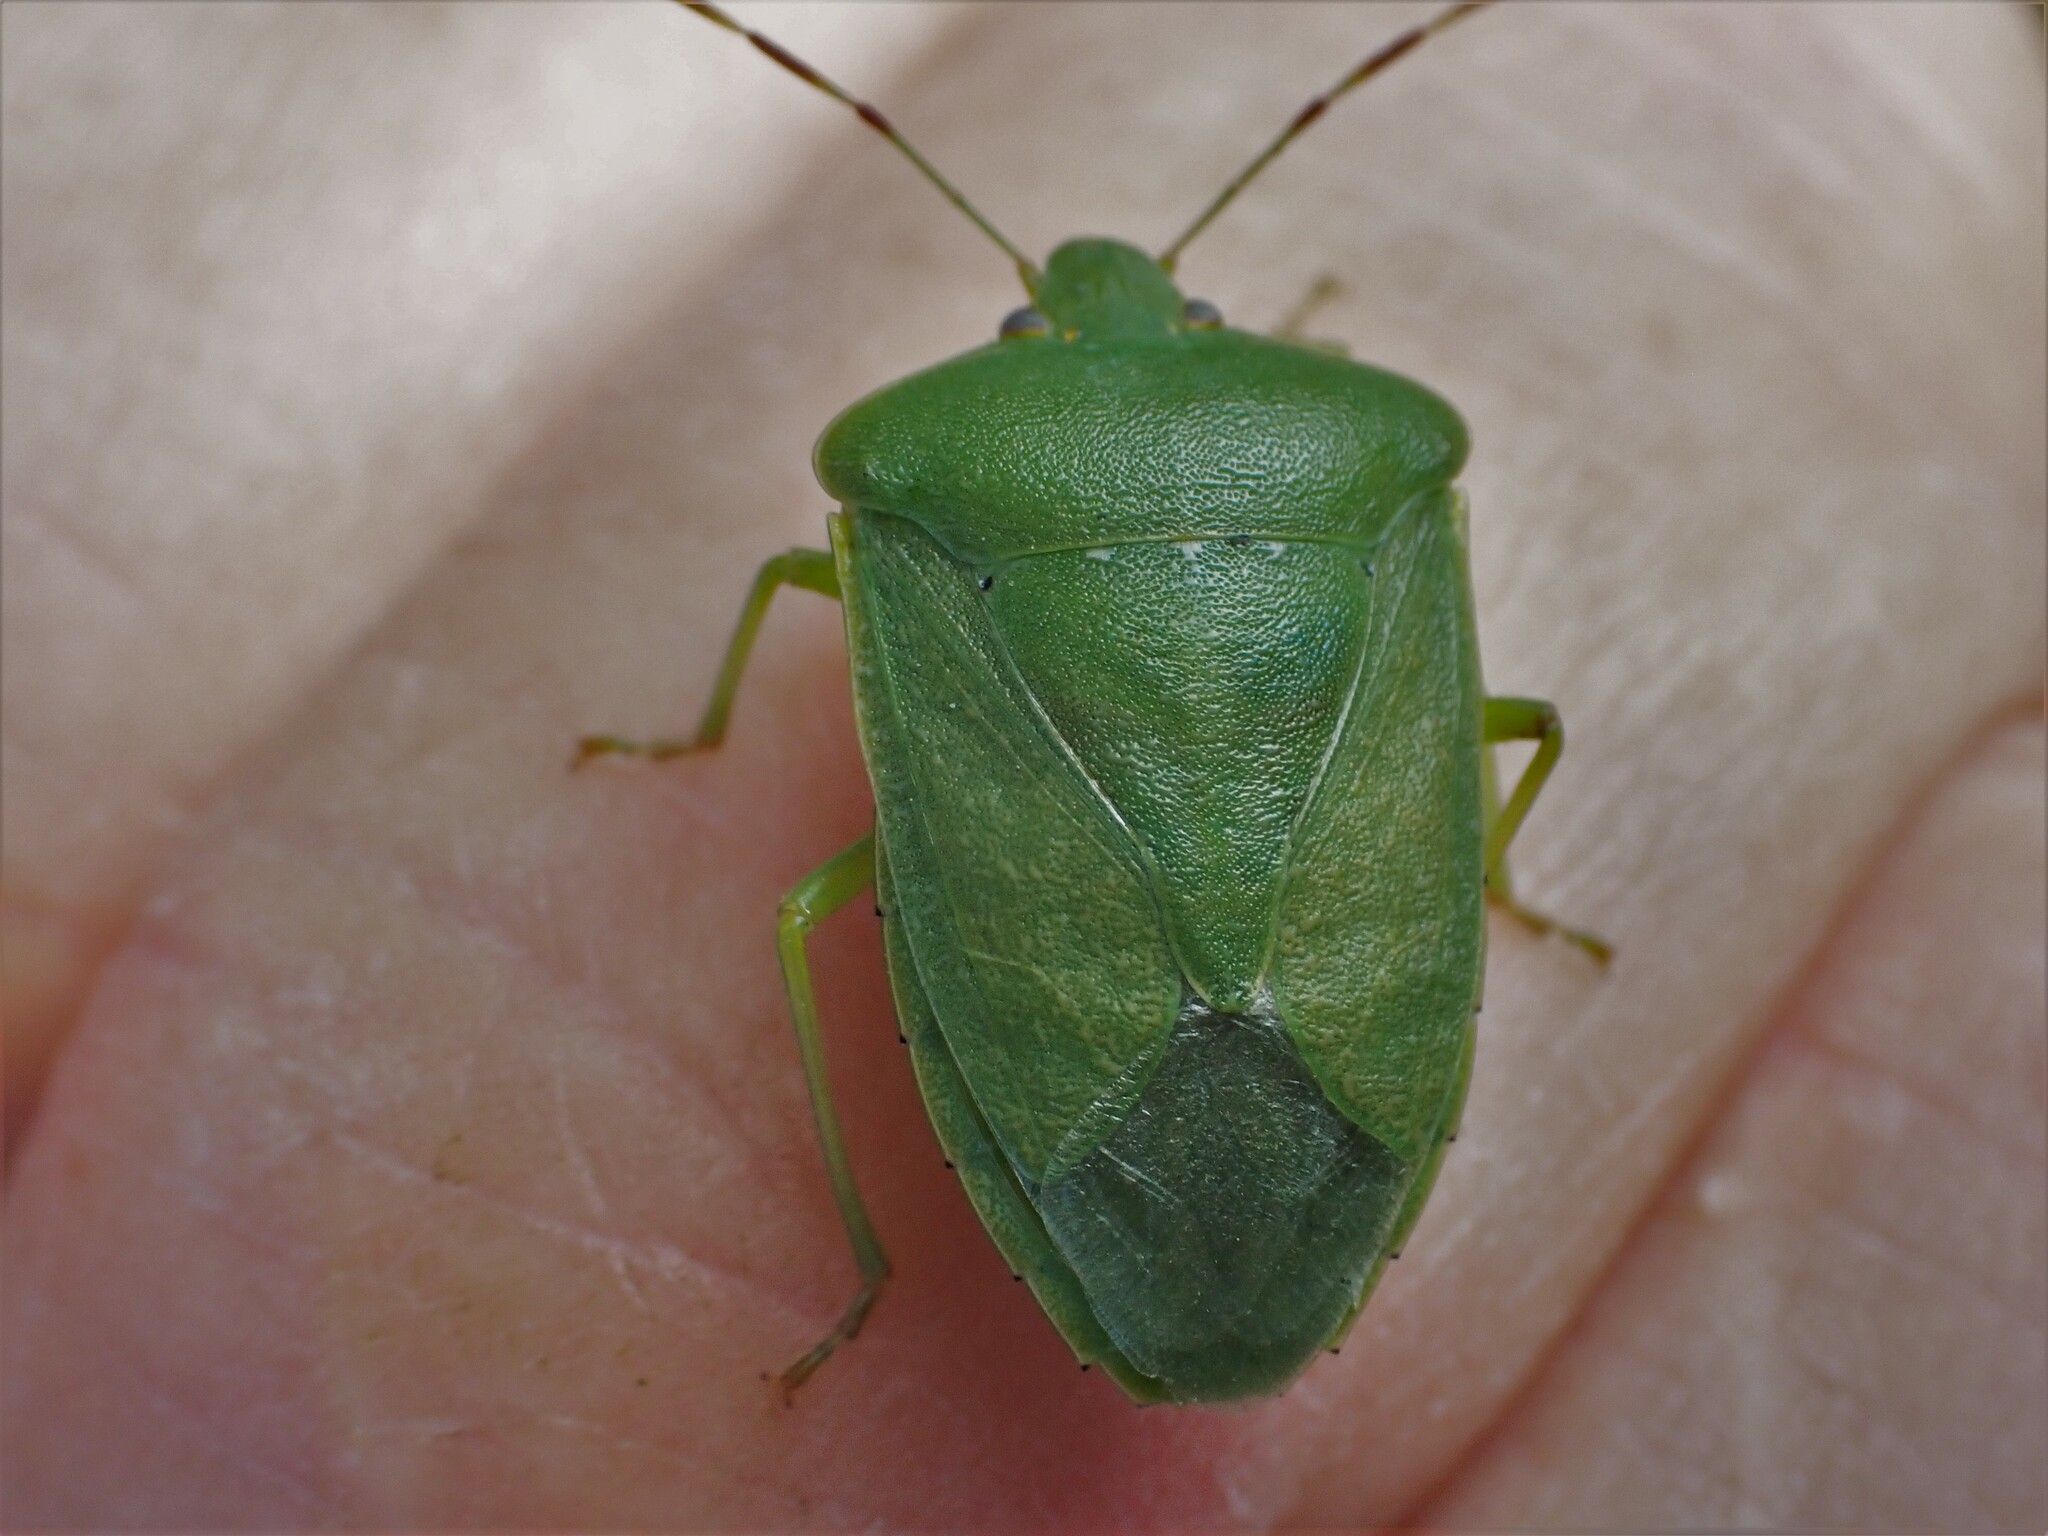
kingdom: Animalia
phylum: Arthropoda
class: Insecta
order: Hemiptera
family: Pentatomidae
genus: Nezara
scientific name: Nezara viridula
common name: Southern green stink bug
